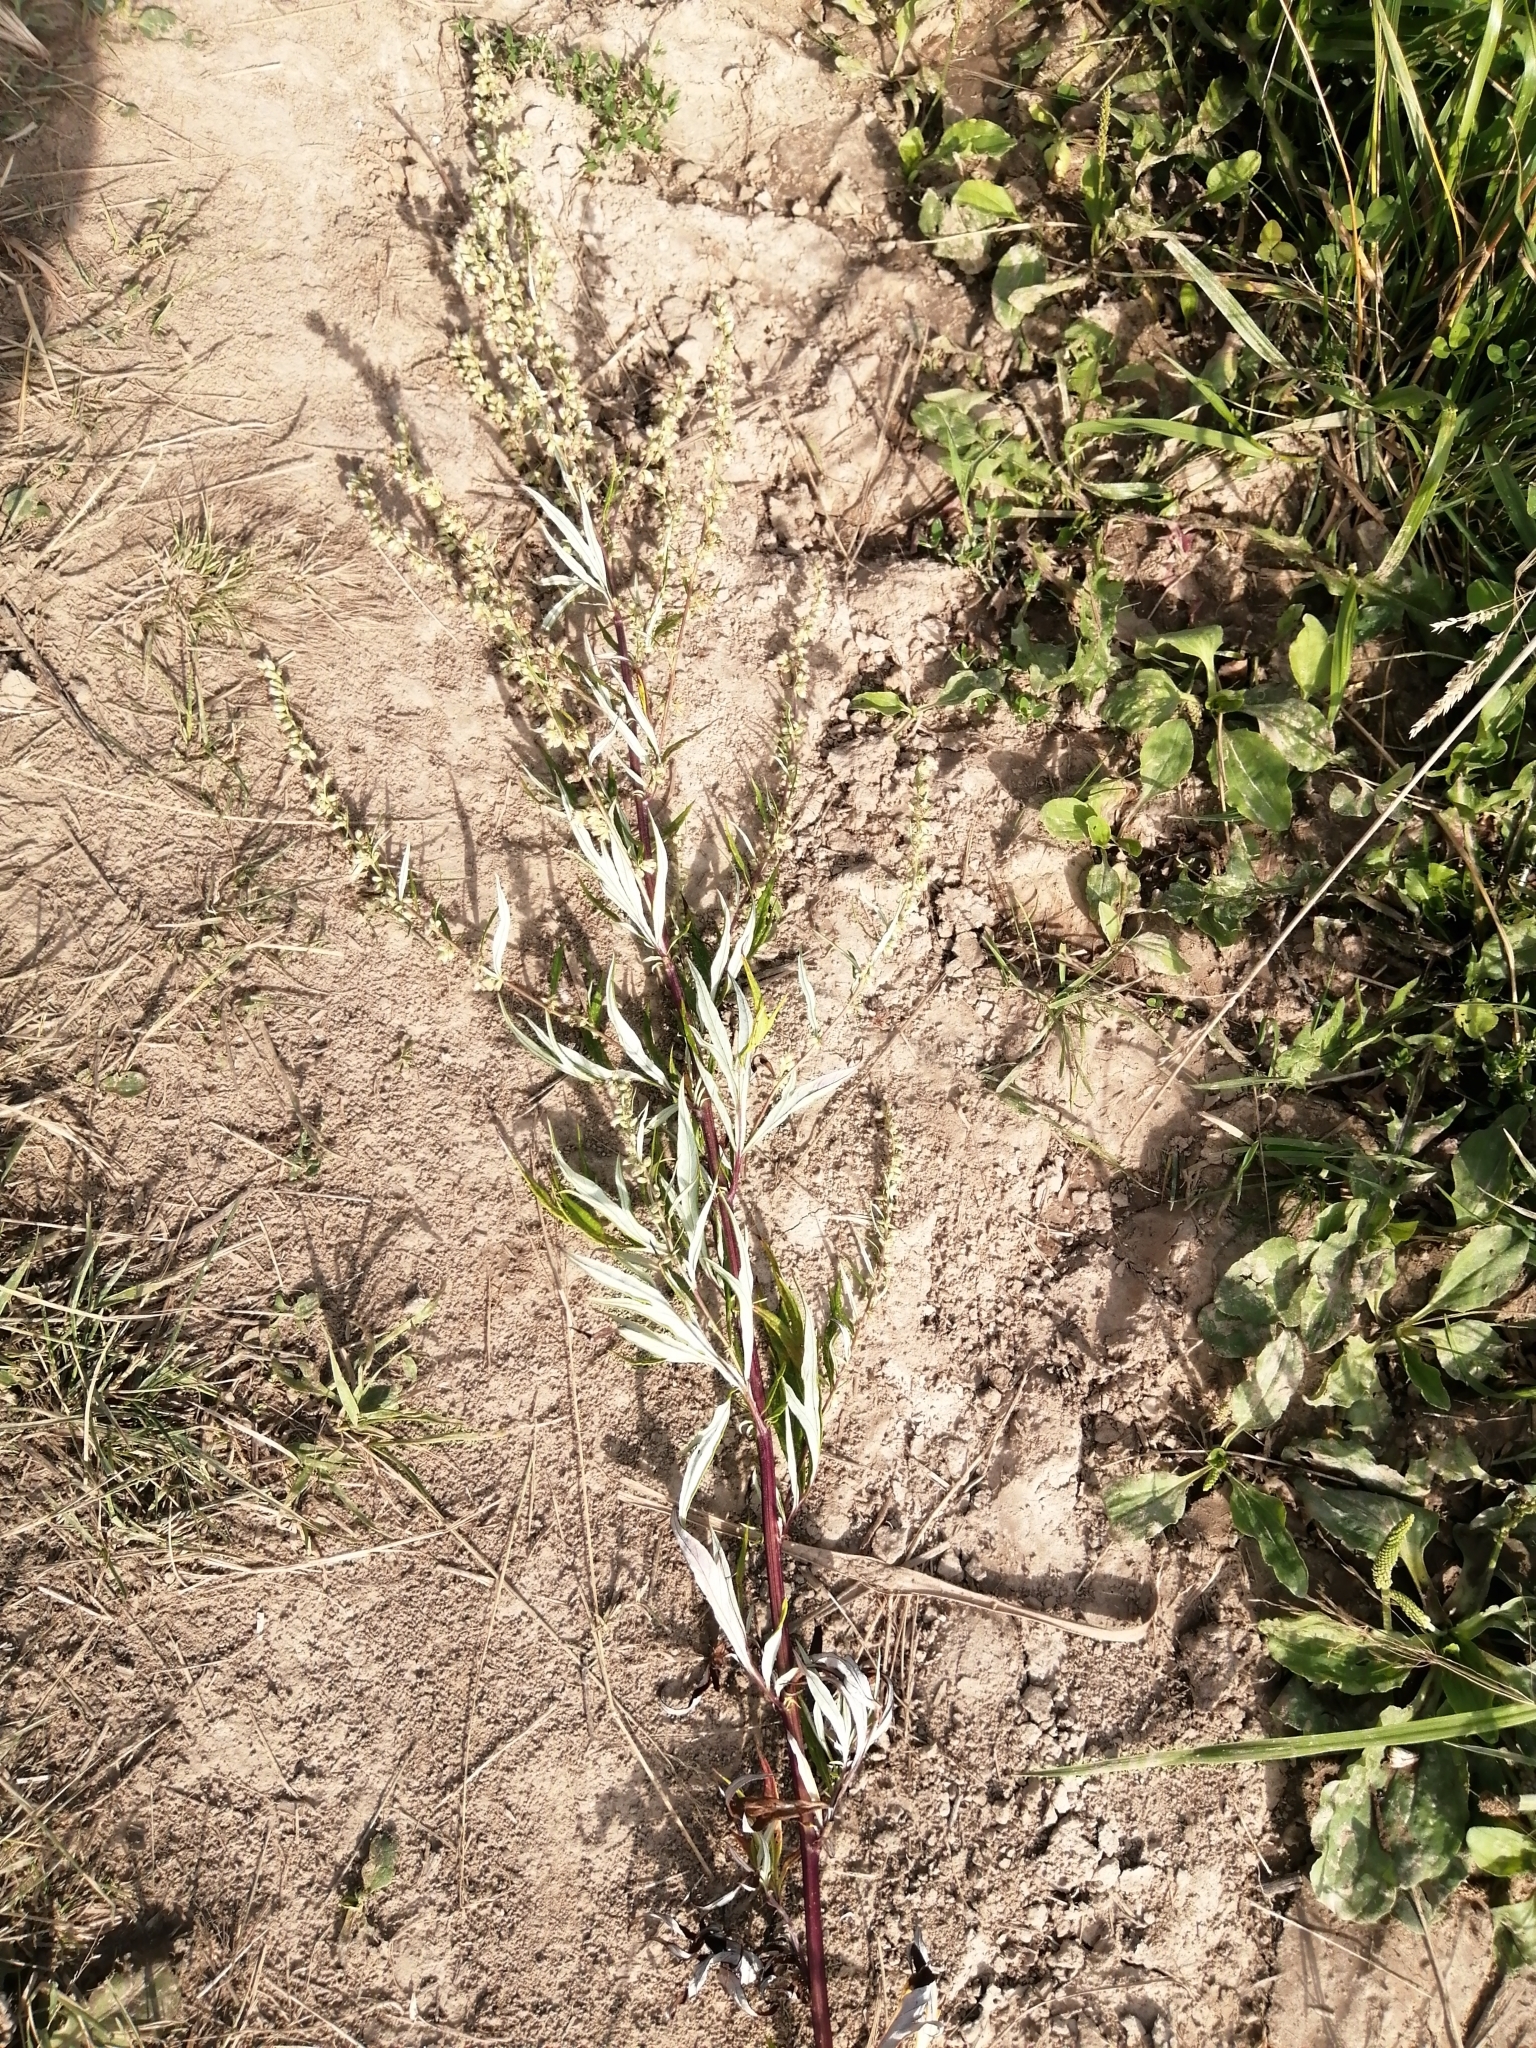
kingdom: Plantae
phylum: Tracheophyta
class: Magnoliopsida
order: Asterales
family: Asteraceae
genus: Artemisia
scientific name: Artemisia vulgaris
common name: Mugwort
